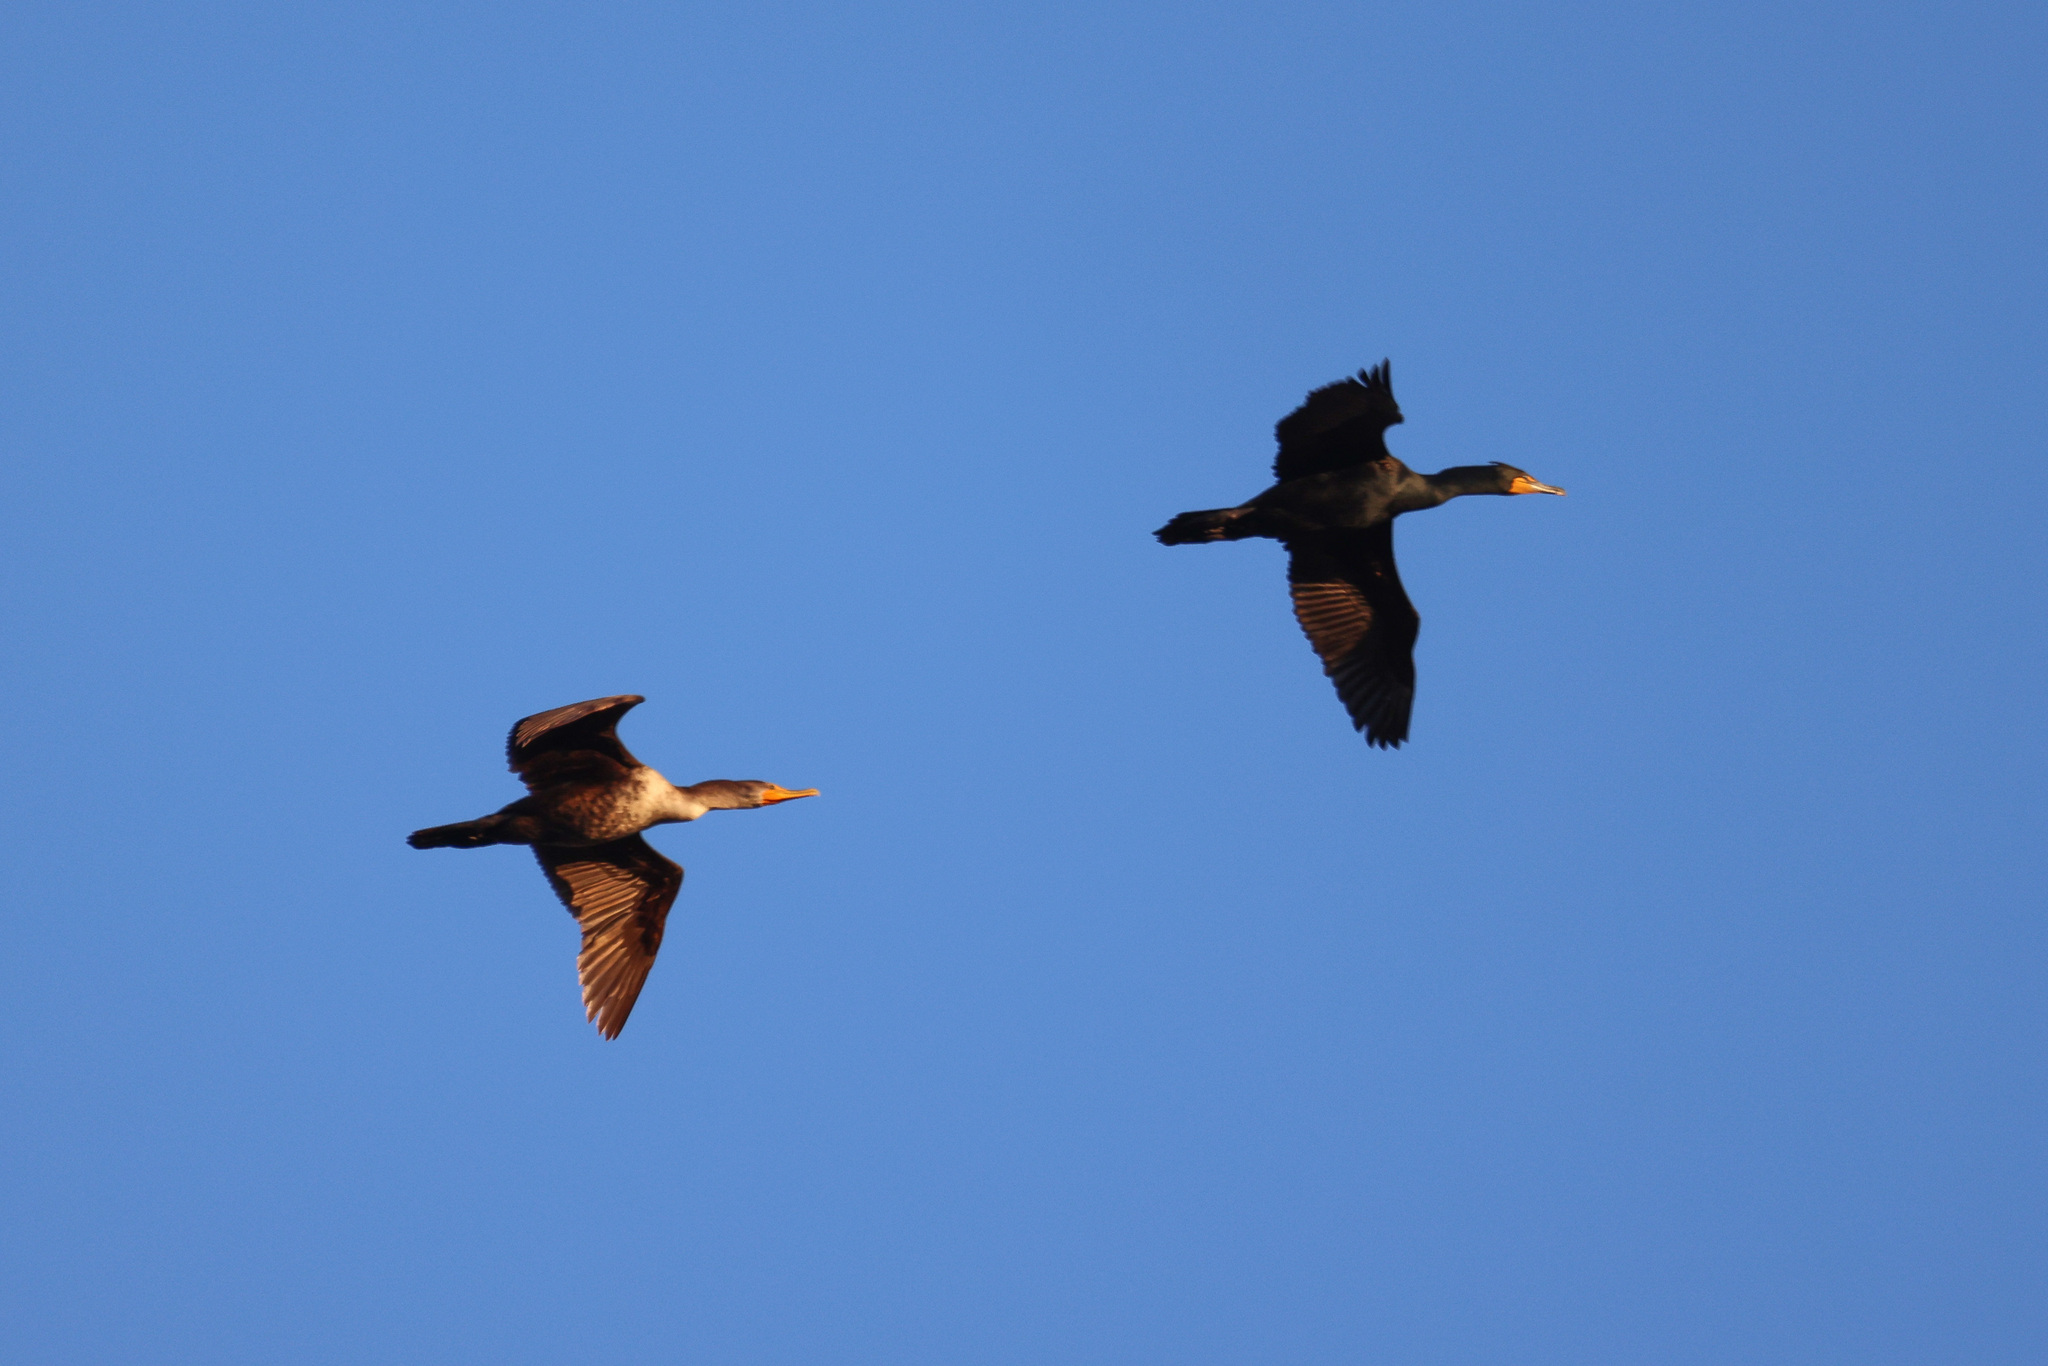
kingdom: Animalia
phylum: Chordata
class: Aves
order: Suliformes
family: Phalacrocoracidae
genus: Phalacrocorax
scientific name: Phalacrocorax auritus
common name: Double-crested cormorant
